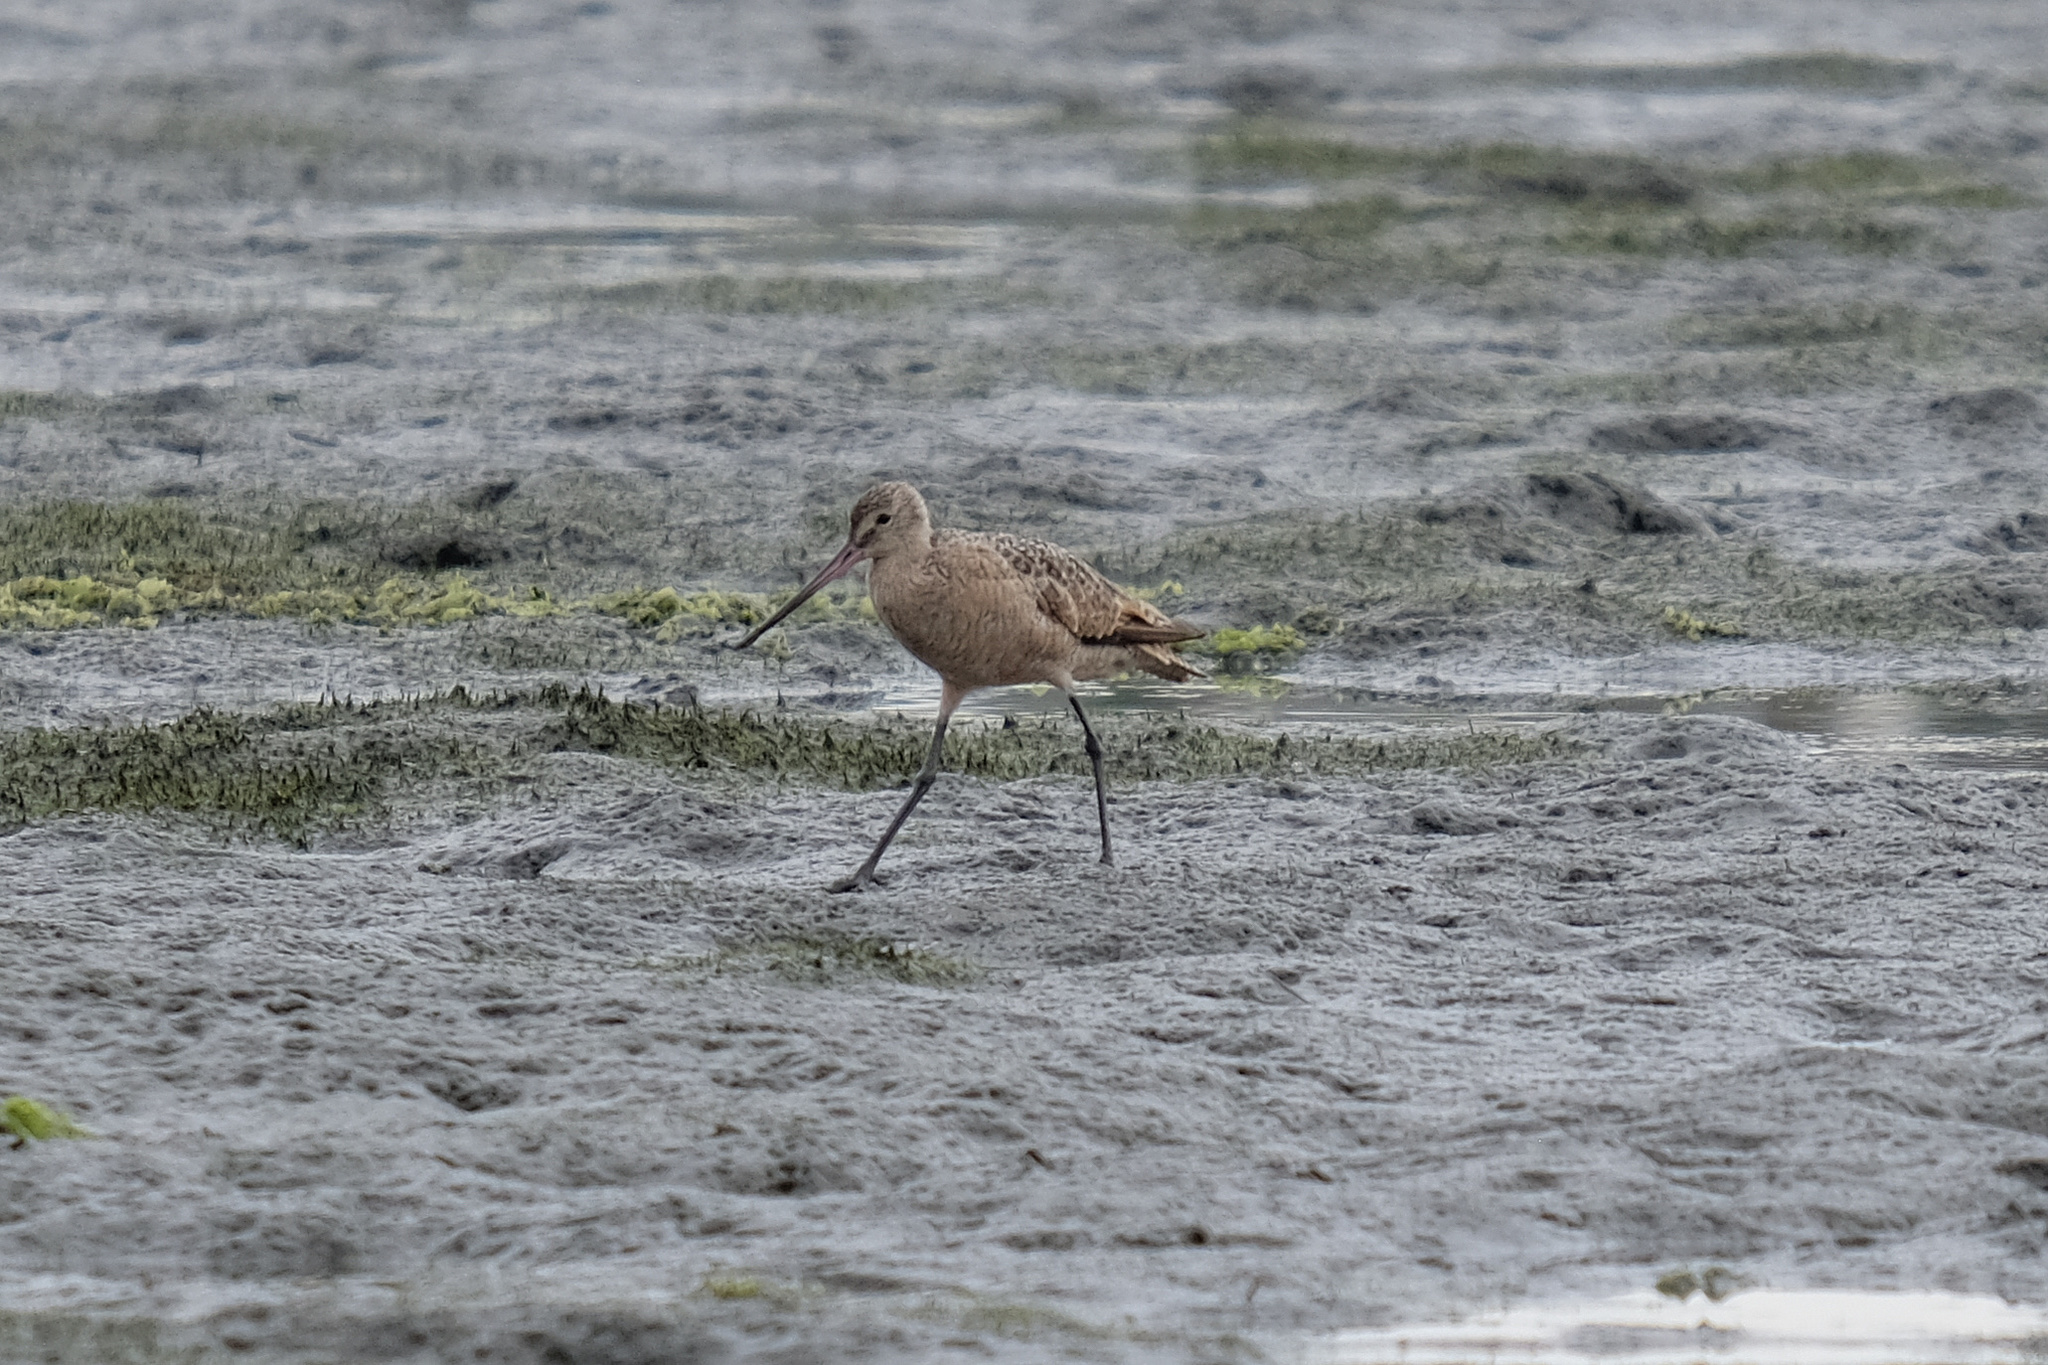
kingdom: Animalia
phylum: Chordata
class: Aves
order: Charadriiformes
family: Scolopacidae
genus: Limosa
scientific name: Limosa fedoa
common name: Marbled godwit
